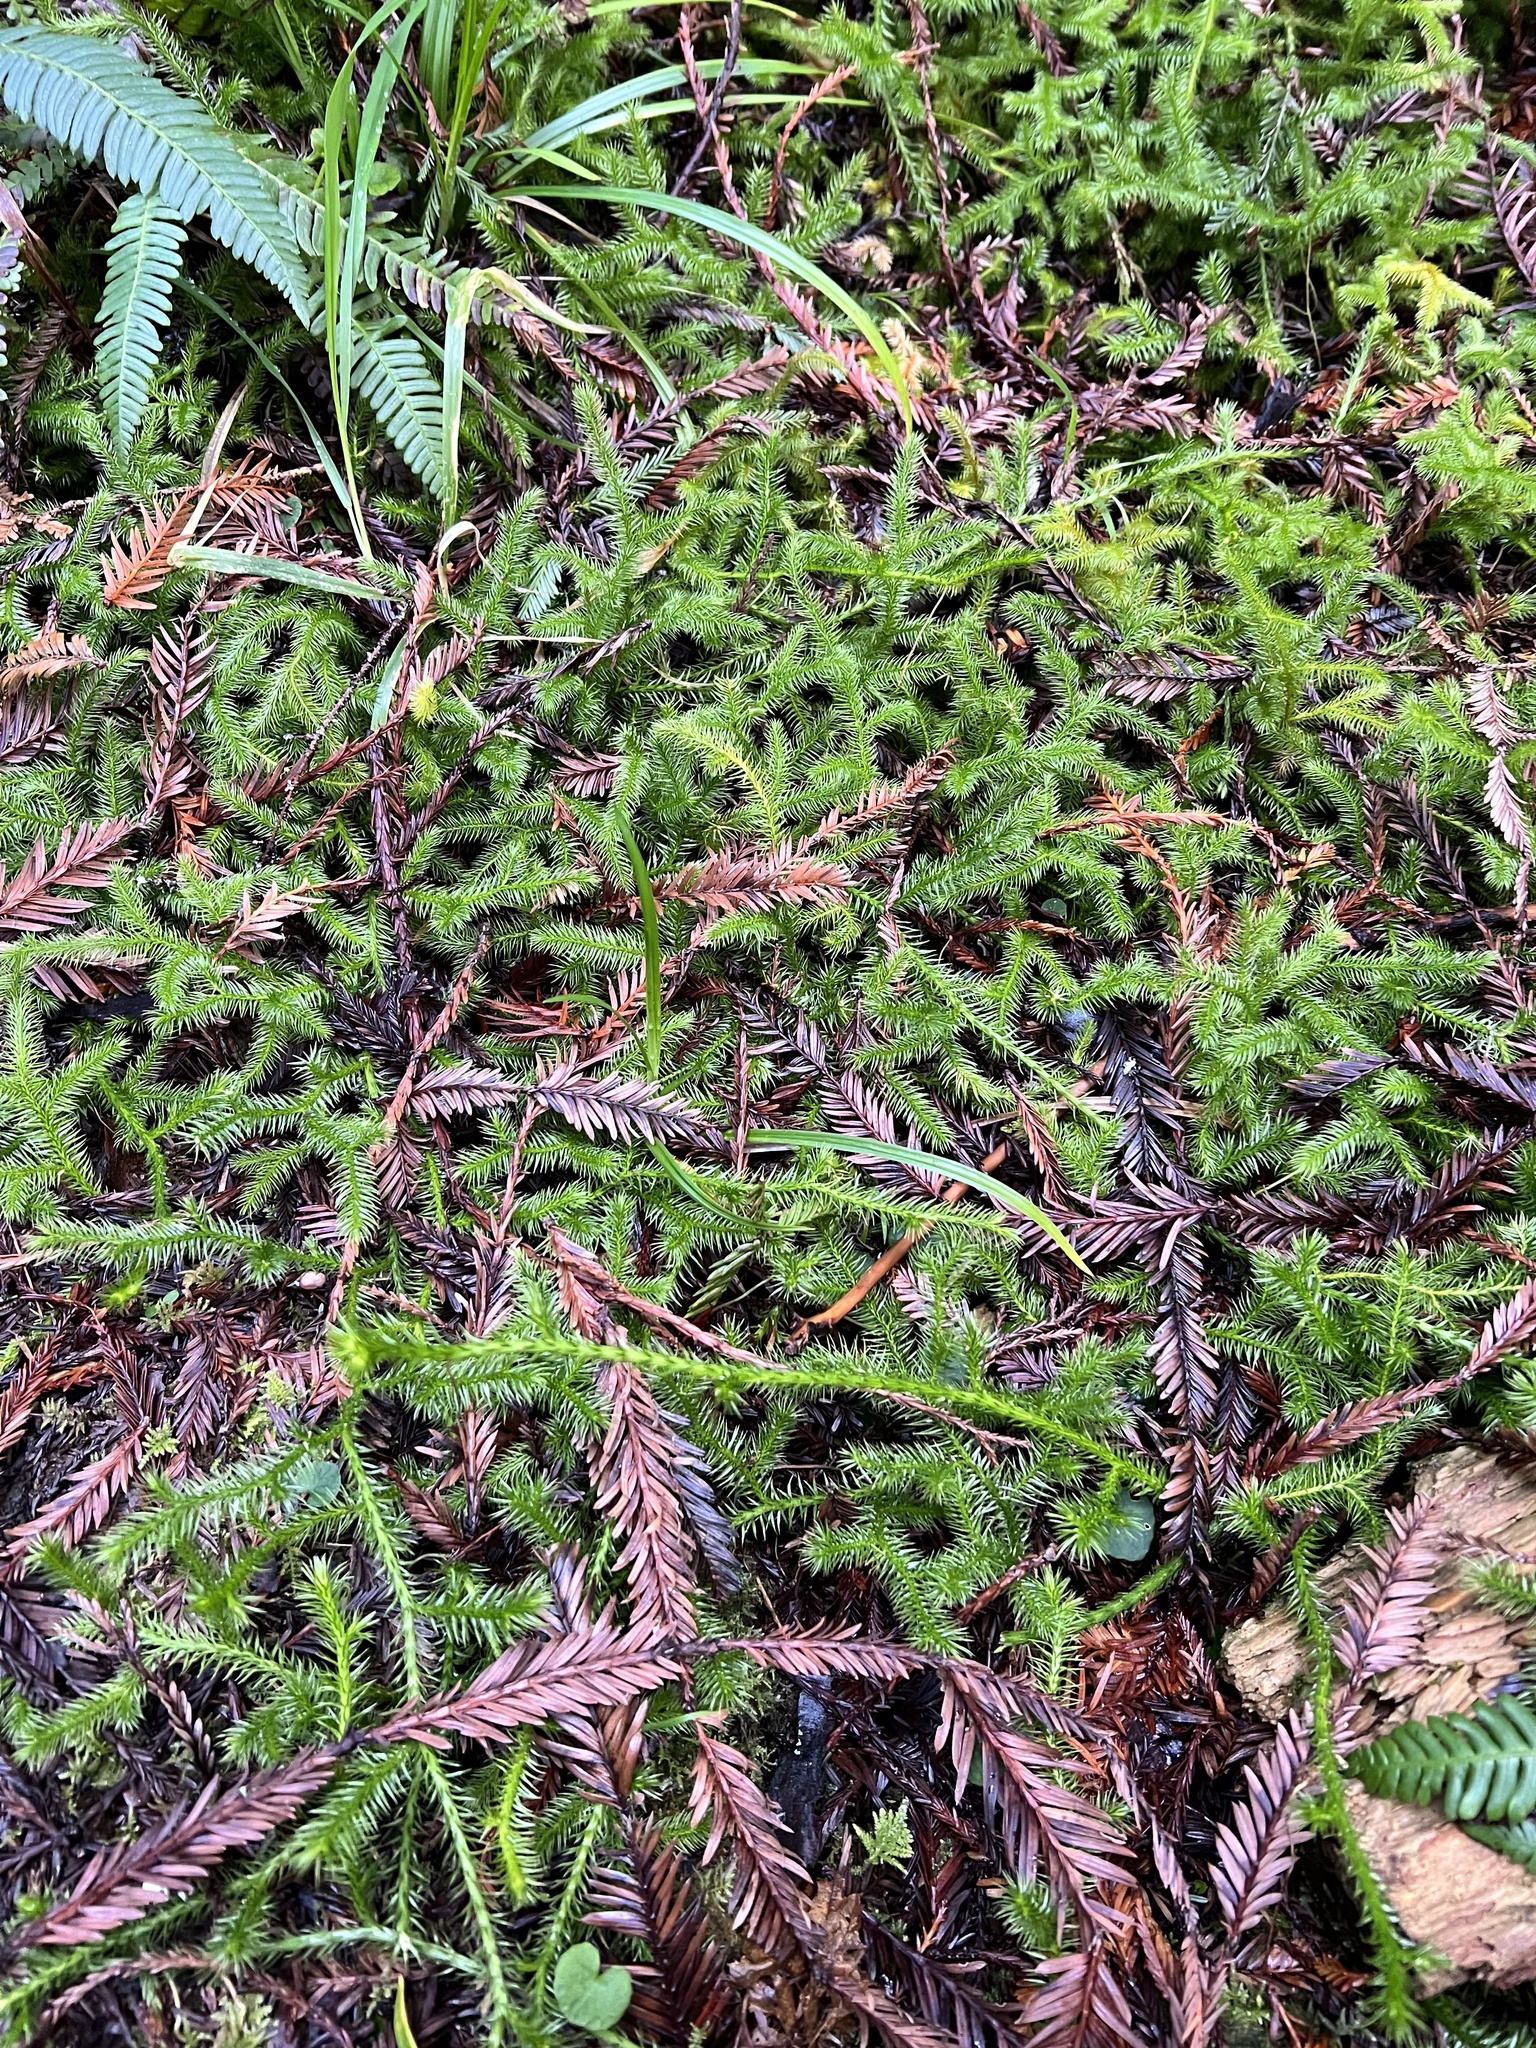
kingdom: Plantae
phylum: Tracheophyta
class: Lycopodiopsida
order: Lycopodiales
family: Lycopodiaceae
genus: Lycopodium
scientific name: Lycopodium clavatum
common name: Stag's-horn clubmoss
